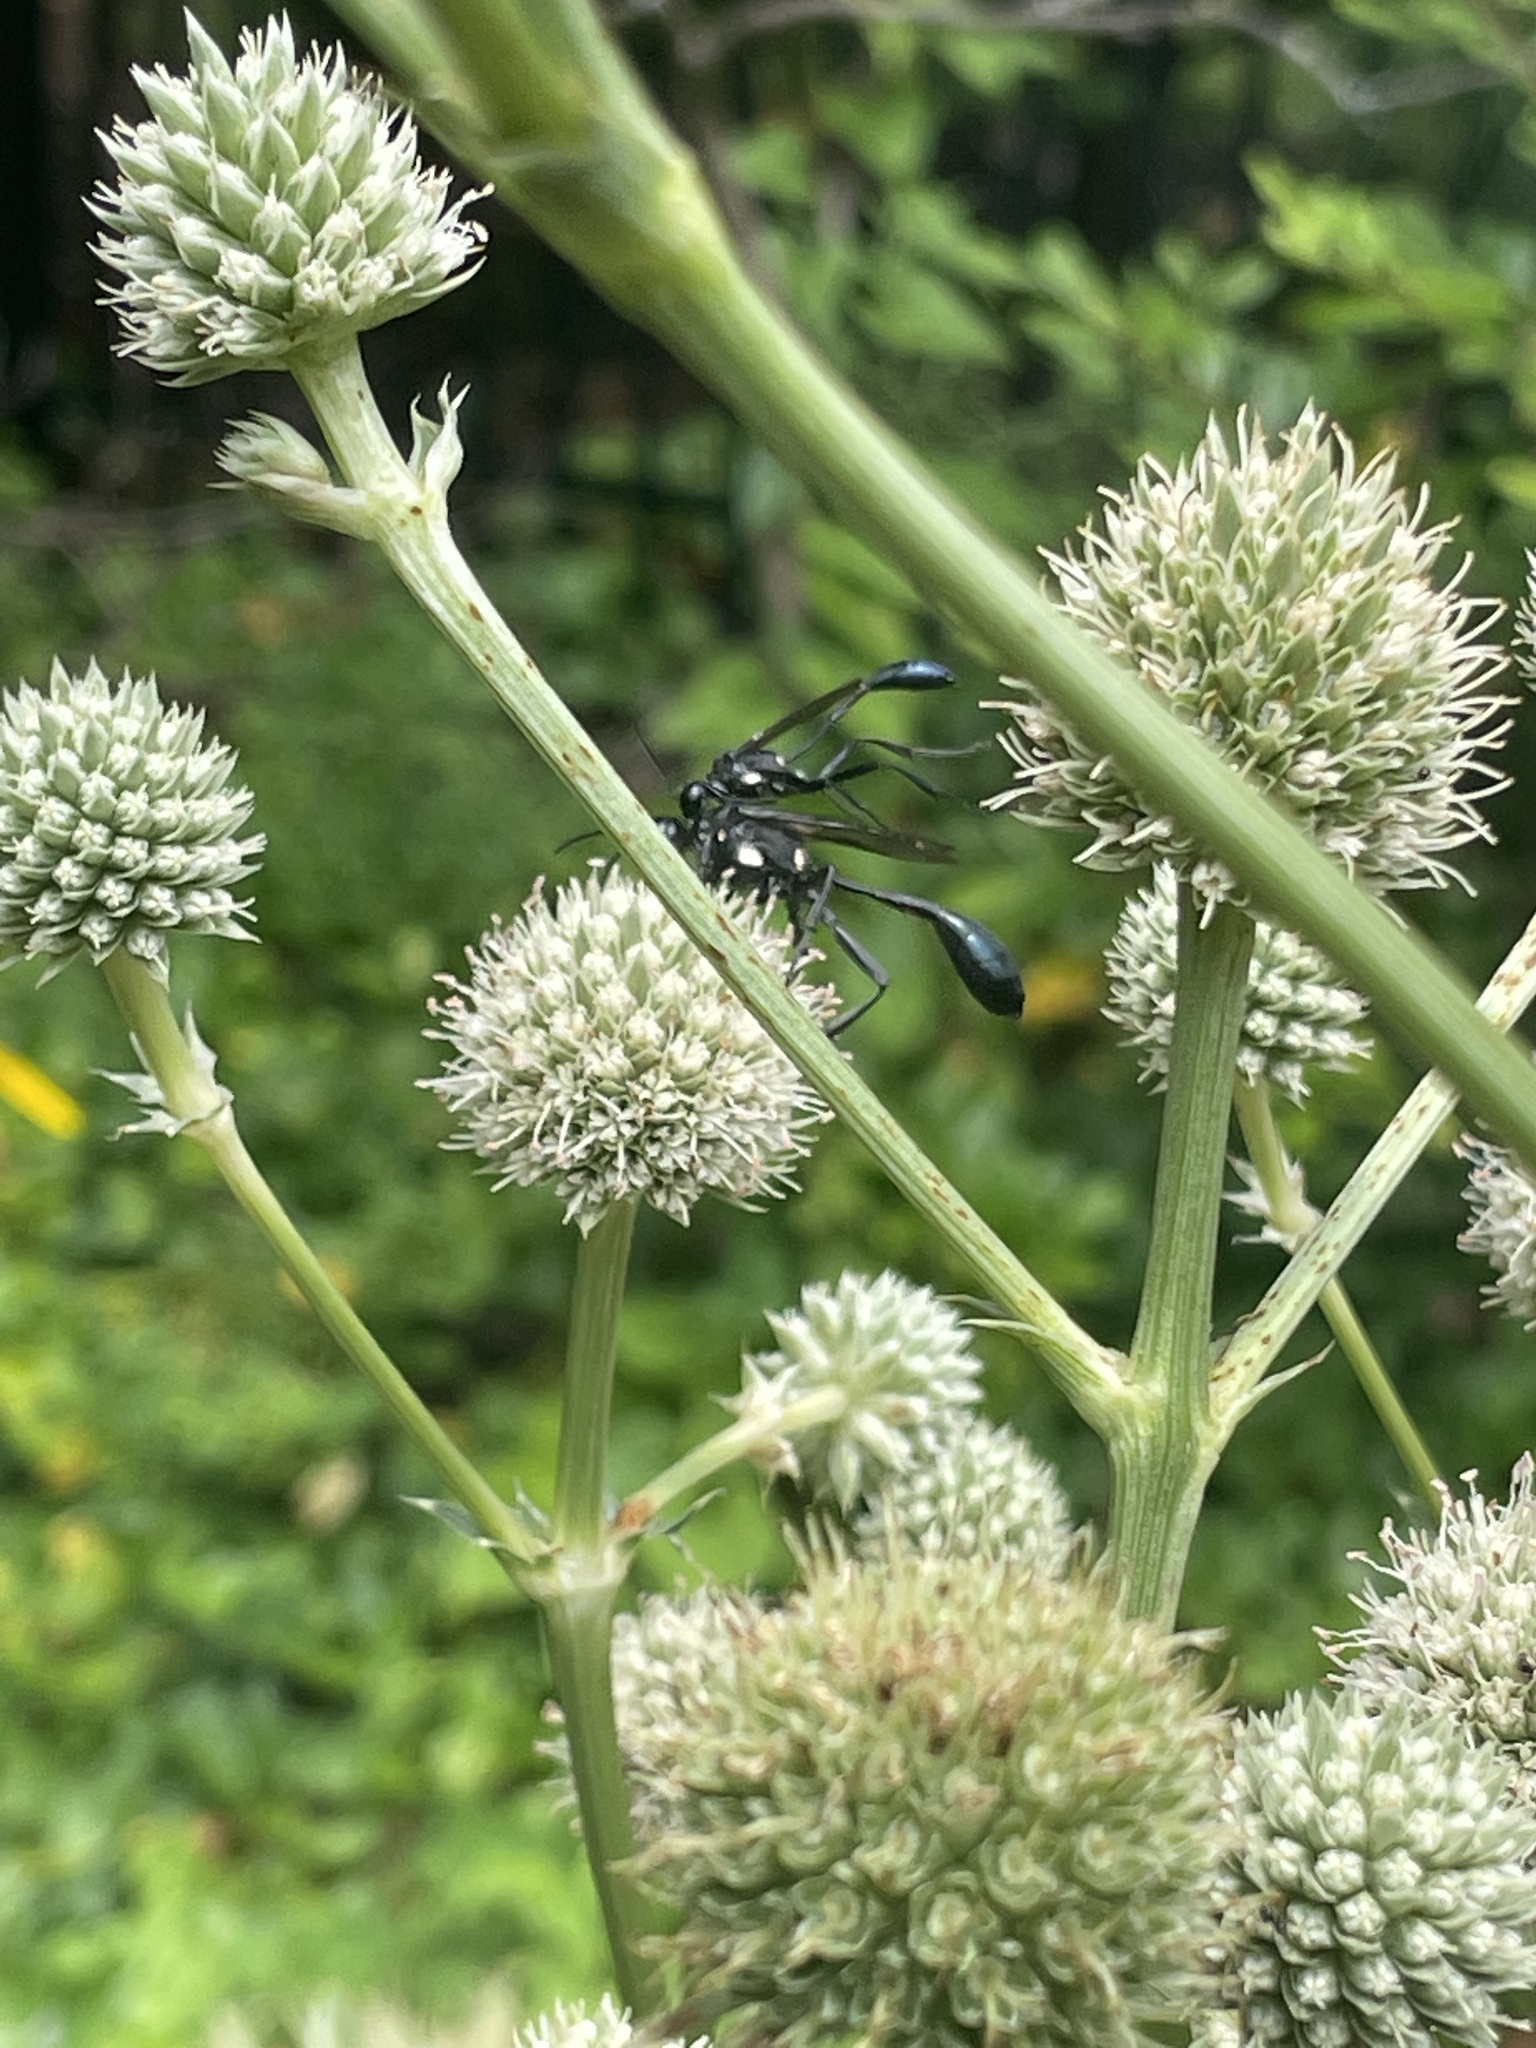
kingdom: Animalia
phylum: Arthropoda
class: Insecta
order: Hymenoptera
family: Sphecidae
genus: Eremnophila
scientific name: Eremnophila aureonotata
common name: Gold-marked thread-waisted wasp
